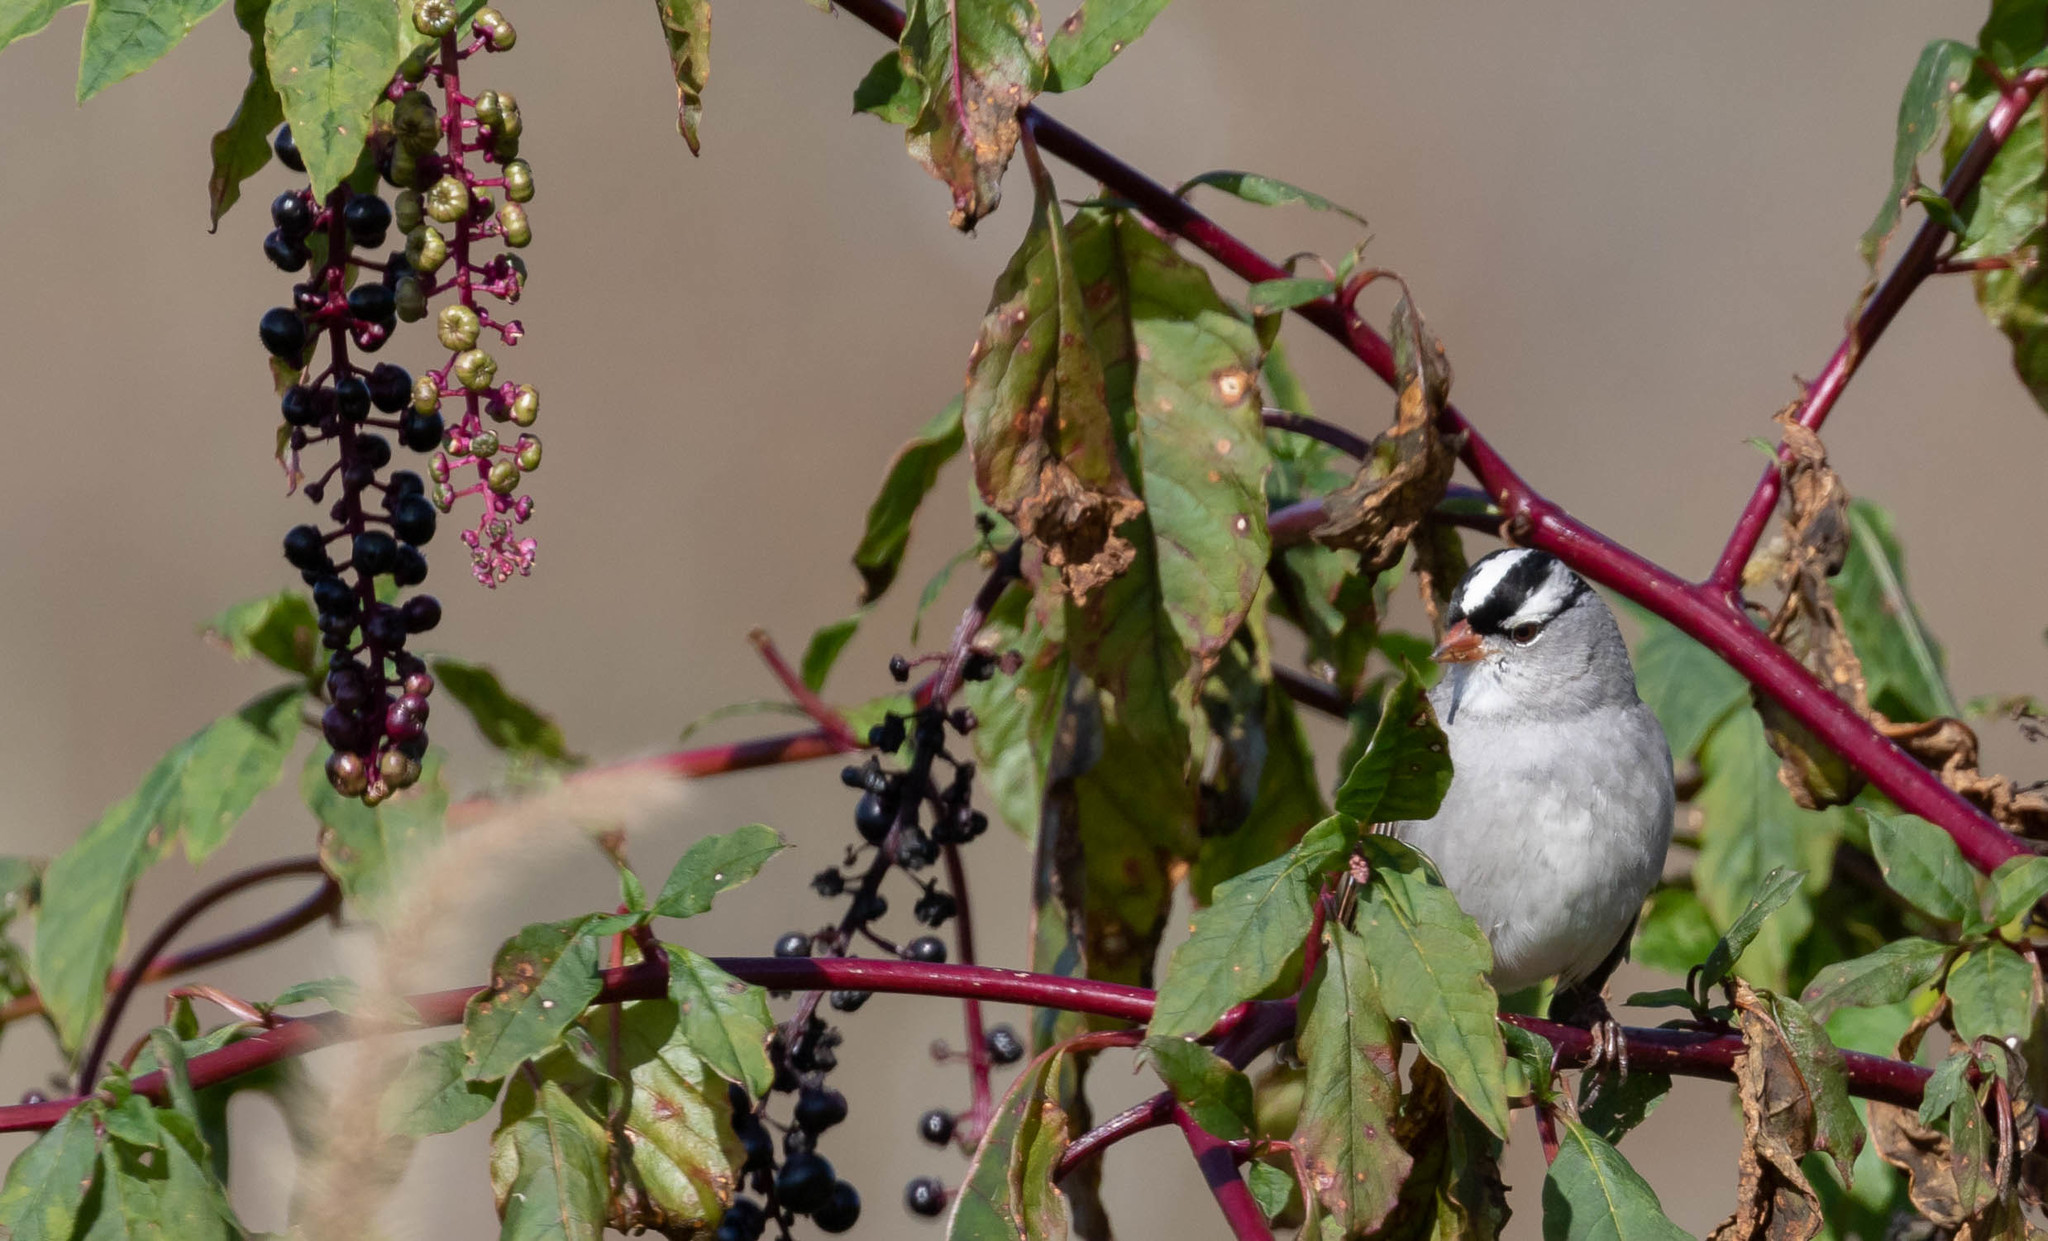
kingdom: Animalia
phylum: Chordata
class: Aves
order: Passeriformes
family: Passerellidae
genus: Zonotrichia
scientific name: Zonotrichia leucophrys
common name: White-crowned sparrow
